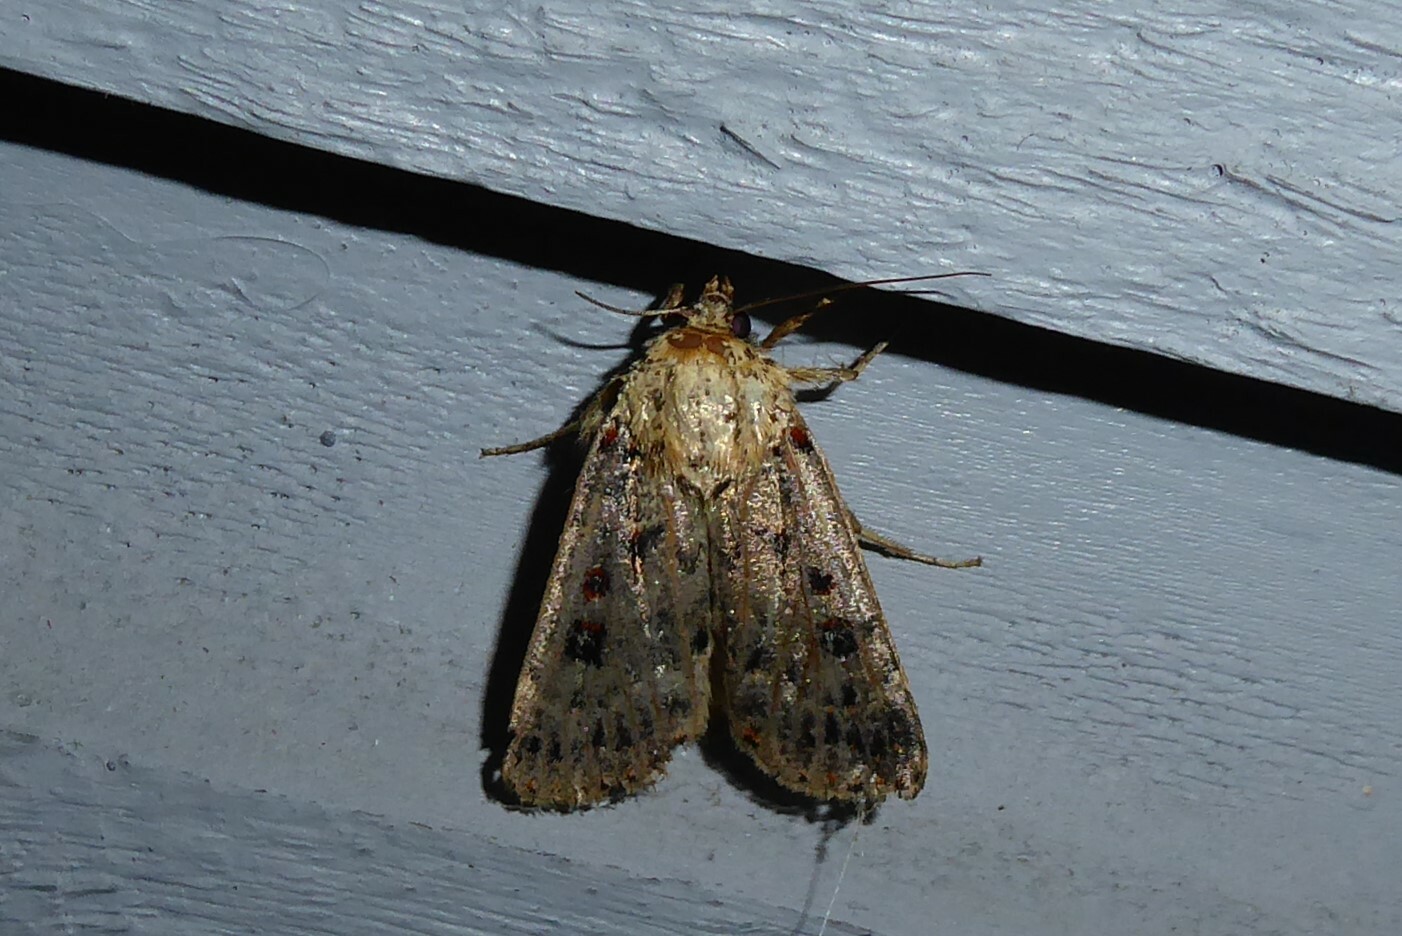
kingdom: Animalia
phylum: Arthropoda
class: Insecta
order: Lepidoptera
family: Noctuidae
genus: Proteuxoa
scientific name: Proteuxoa sanguinipuncta
